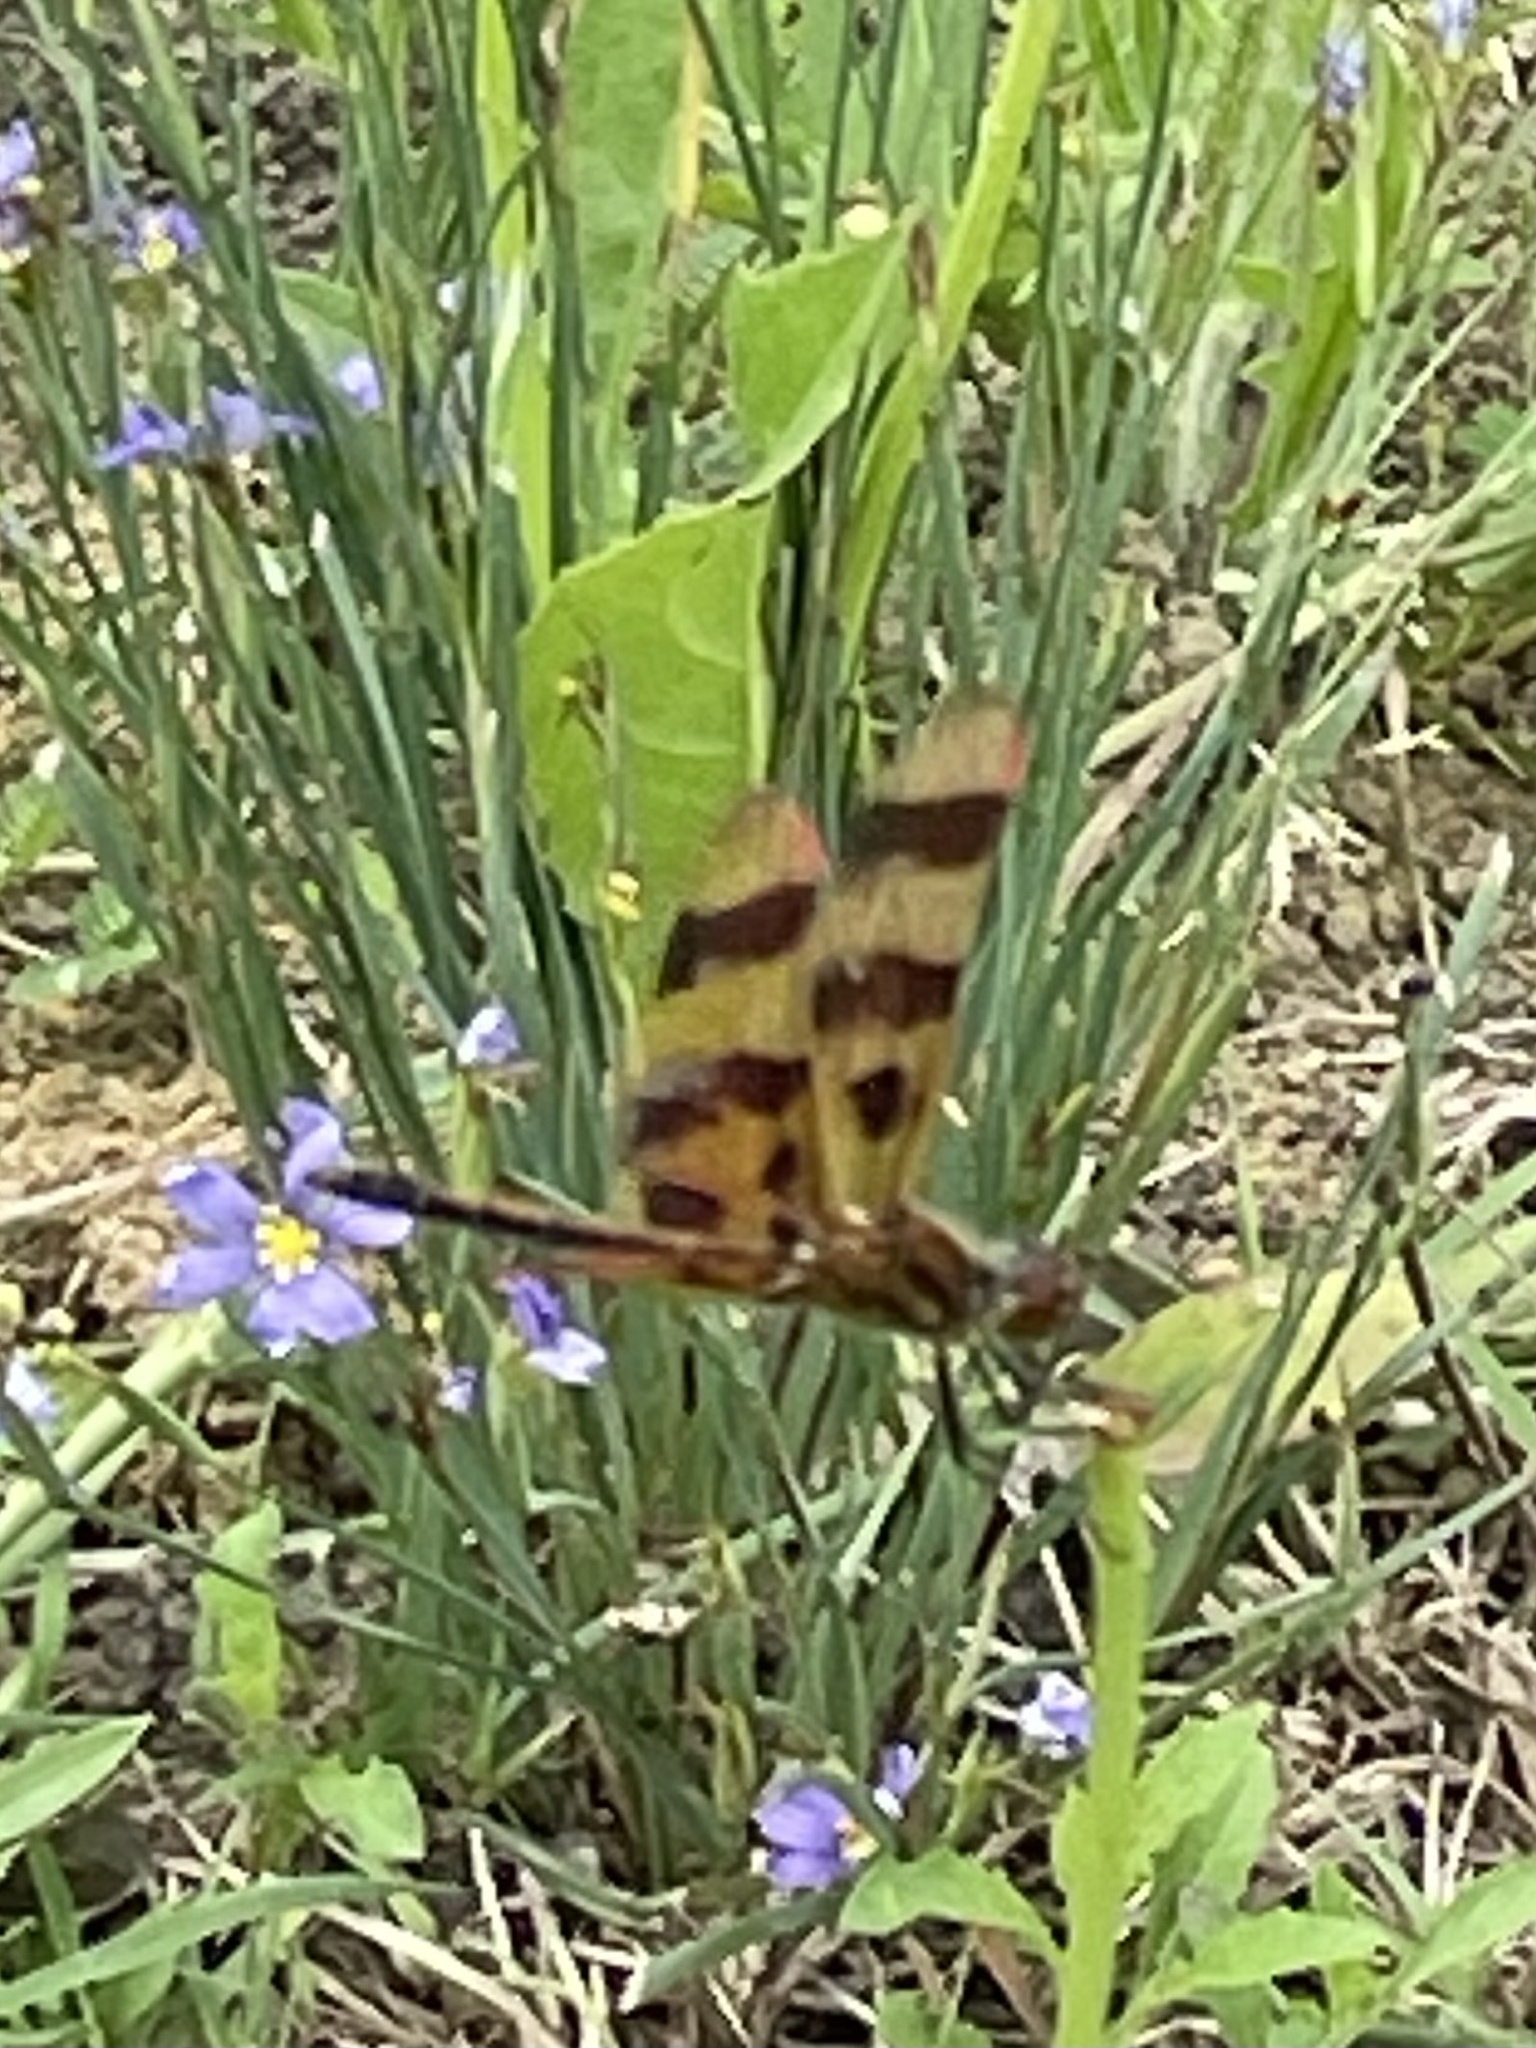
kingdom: Animalia
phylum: Arthropoda
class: Insecta
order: Odonata
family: Libellulidae
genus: Celithemis
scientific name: Celithemis eponina
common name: Halloween pennant
